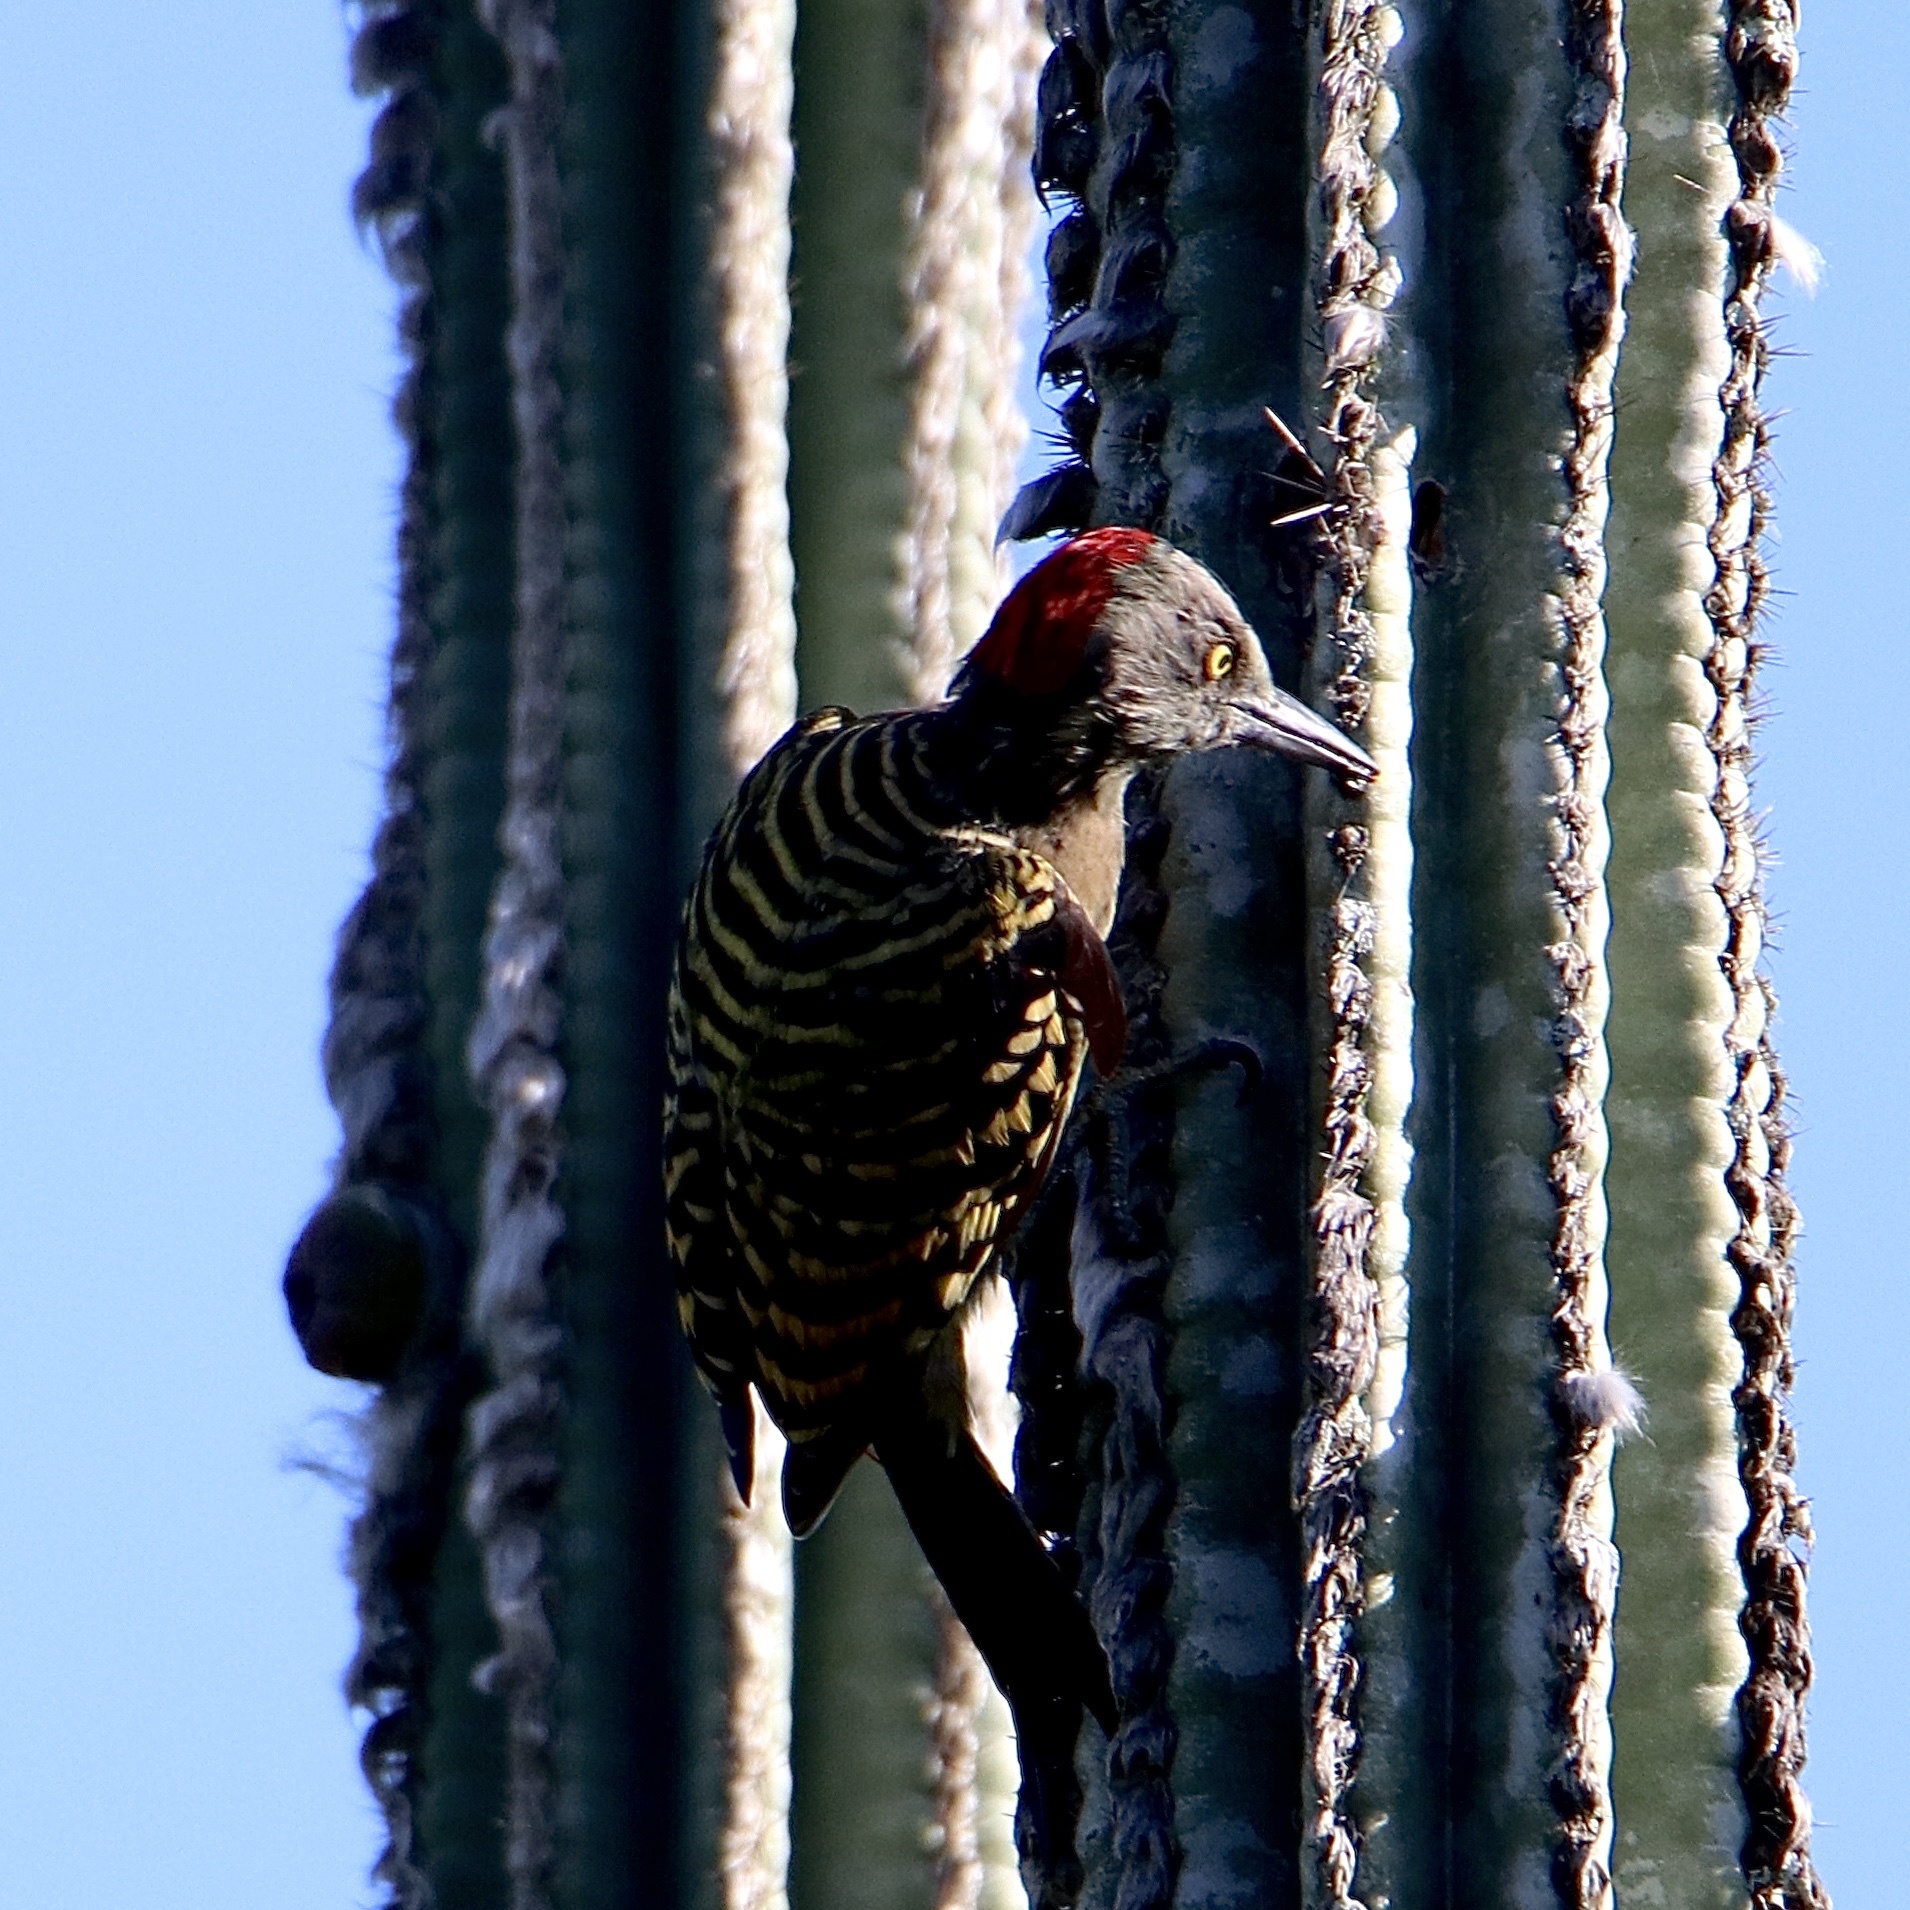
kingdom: Animalia
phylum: Chordata
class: Aves
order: Piciformes
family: Picidae
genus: Melanerpes
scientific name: Melanerpes striatus
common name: Hispaniolan woodpecker
